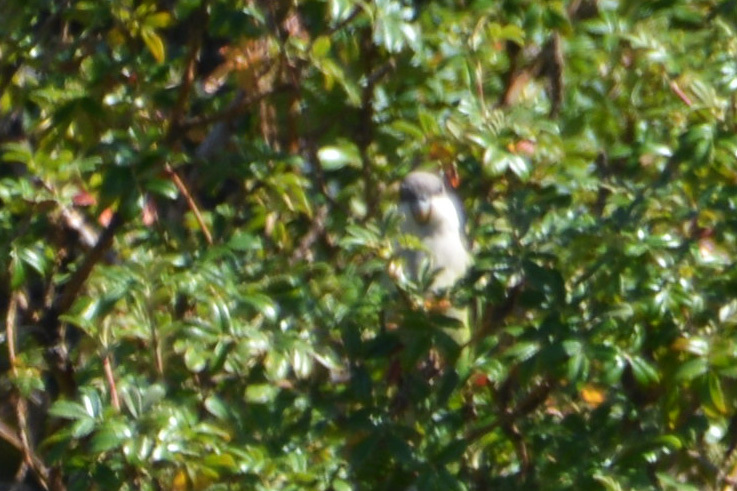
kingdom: Animalia
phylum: Chordata
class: Aves
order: Psittaciformes
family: Psittacidae
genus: Psilopsiagon
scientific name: Psilopsiagon aymara
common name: Grey-hooded parakeet
